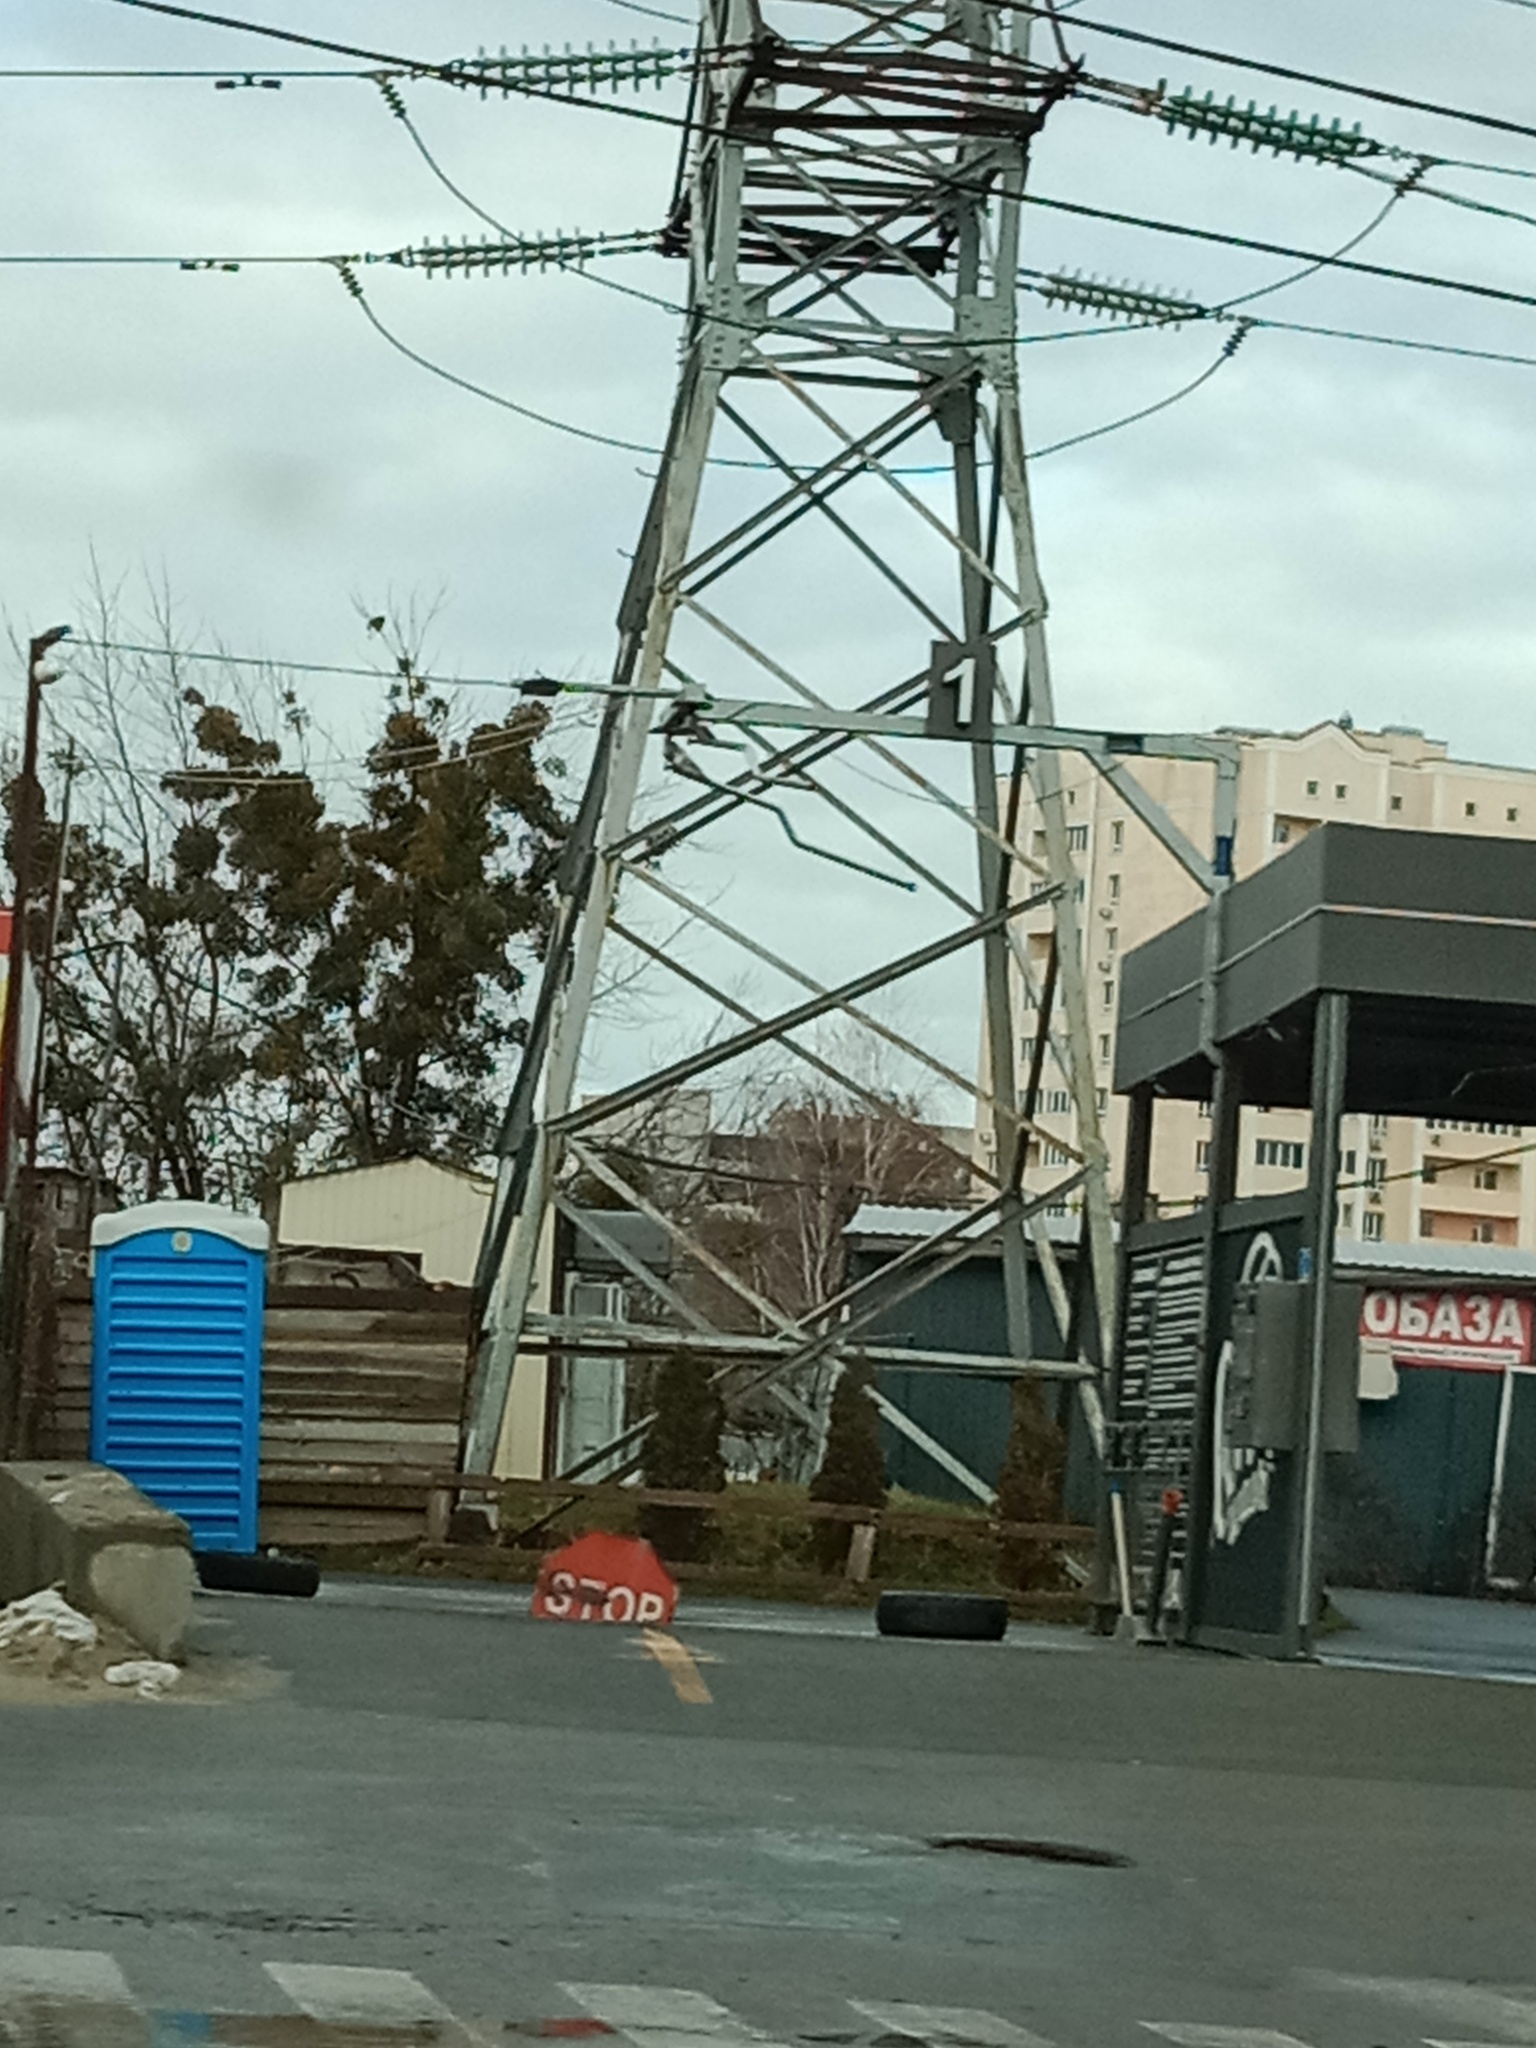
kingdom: Plantae
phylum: Tracheophyta
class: Magnoliopsida
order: Santalales
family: Viscaceae
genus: Viscum
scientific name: Viscum album
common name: Mistletoe
